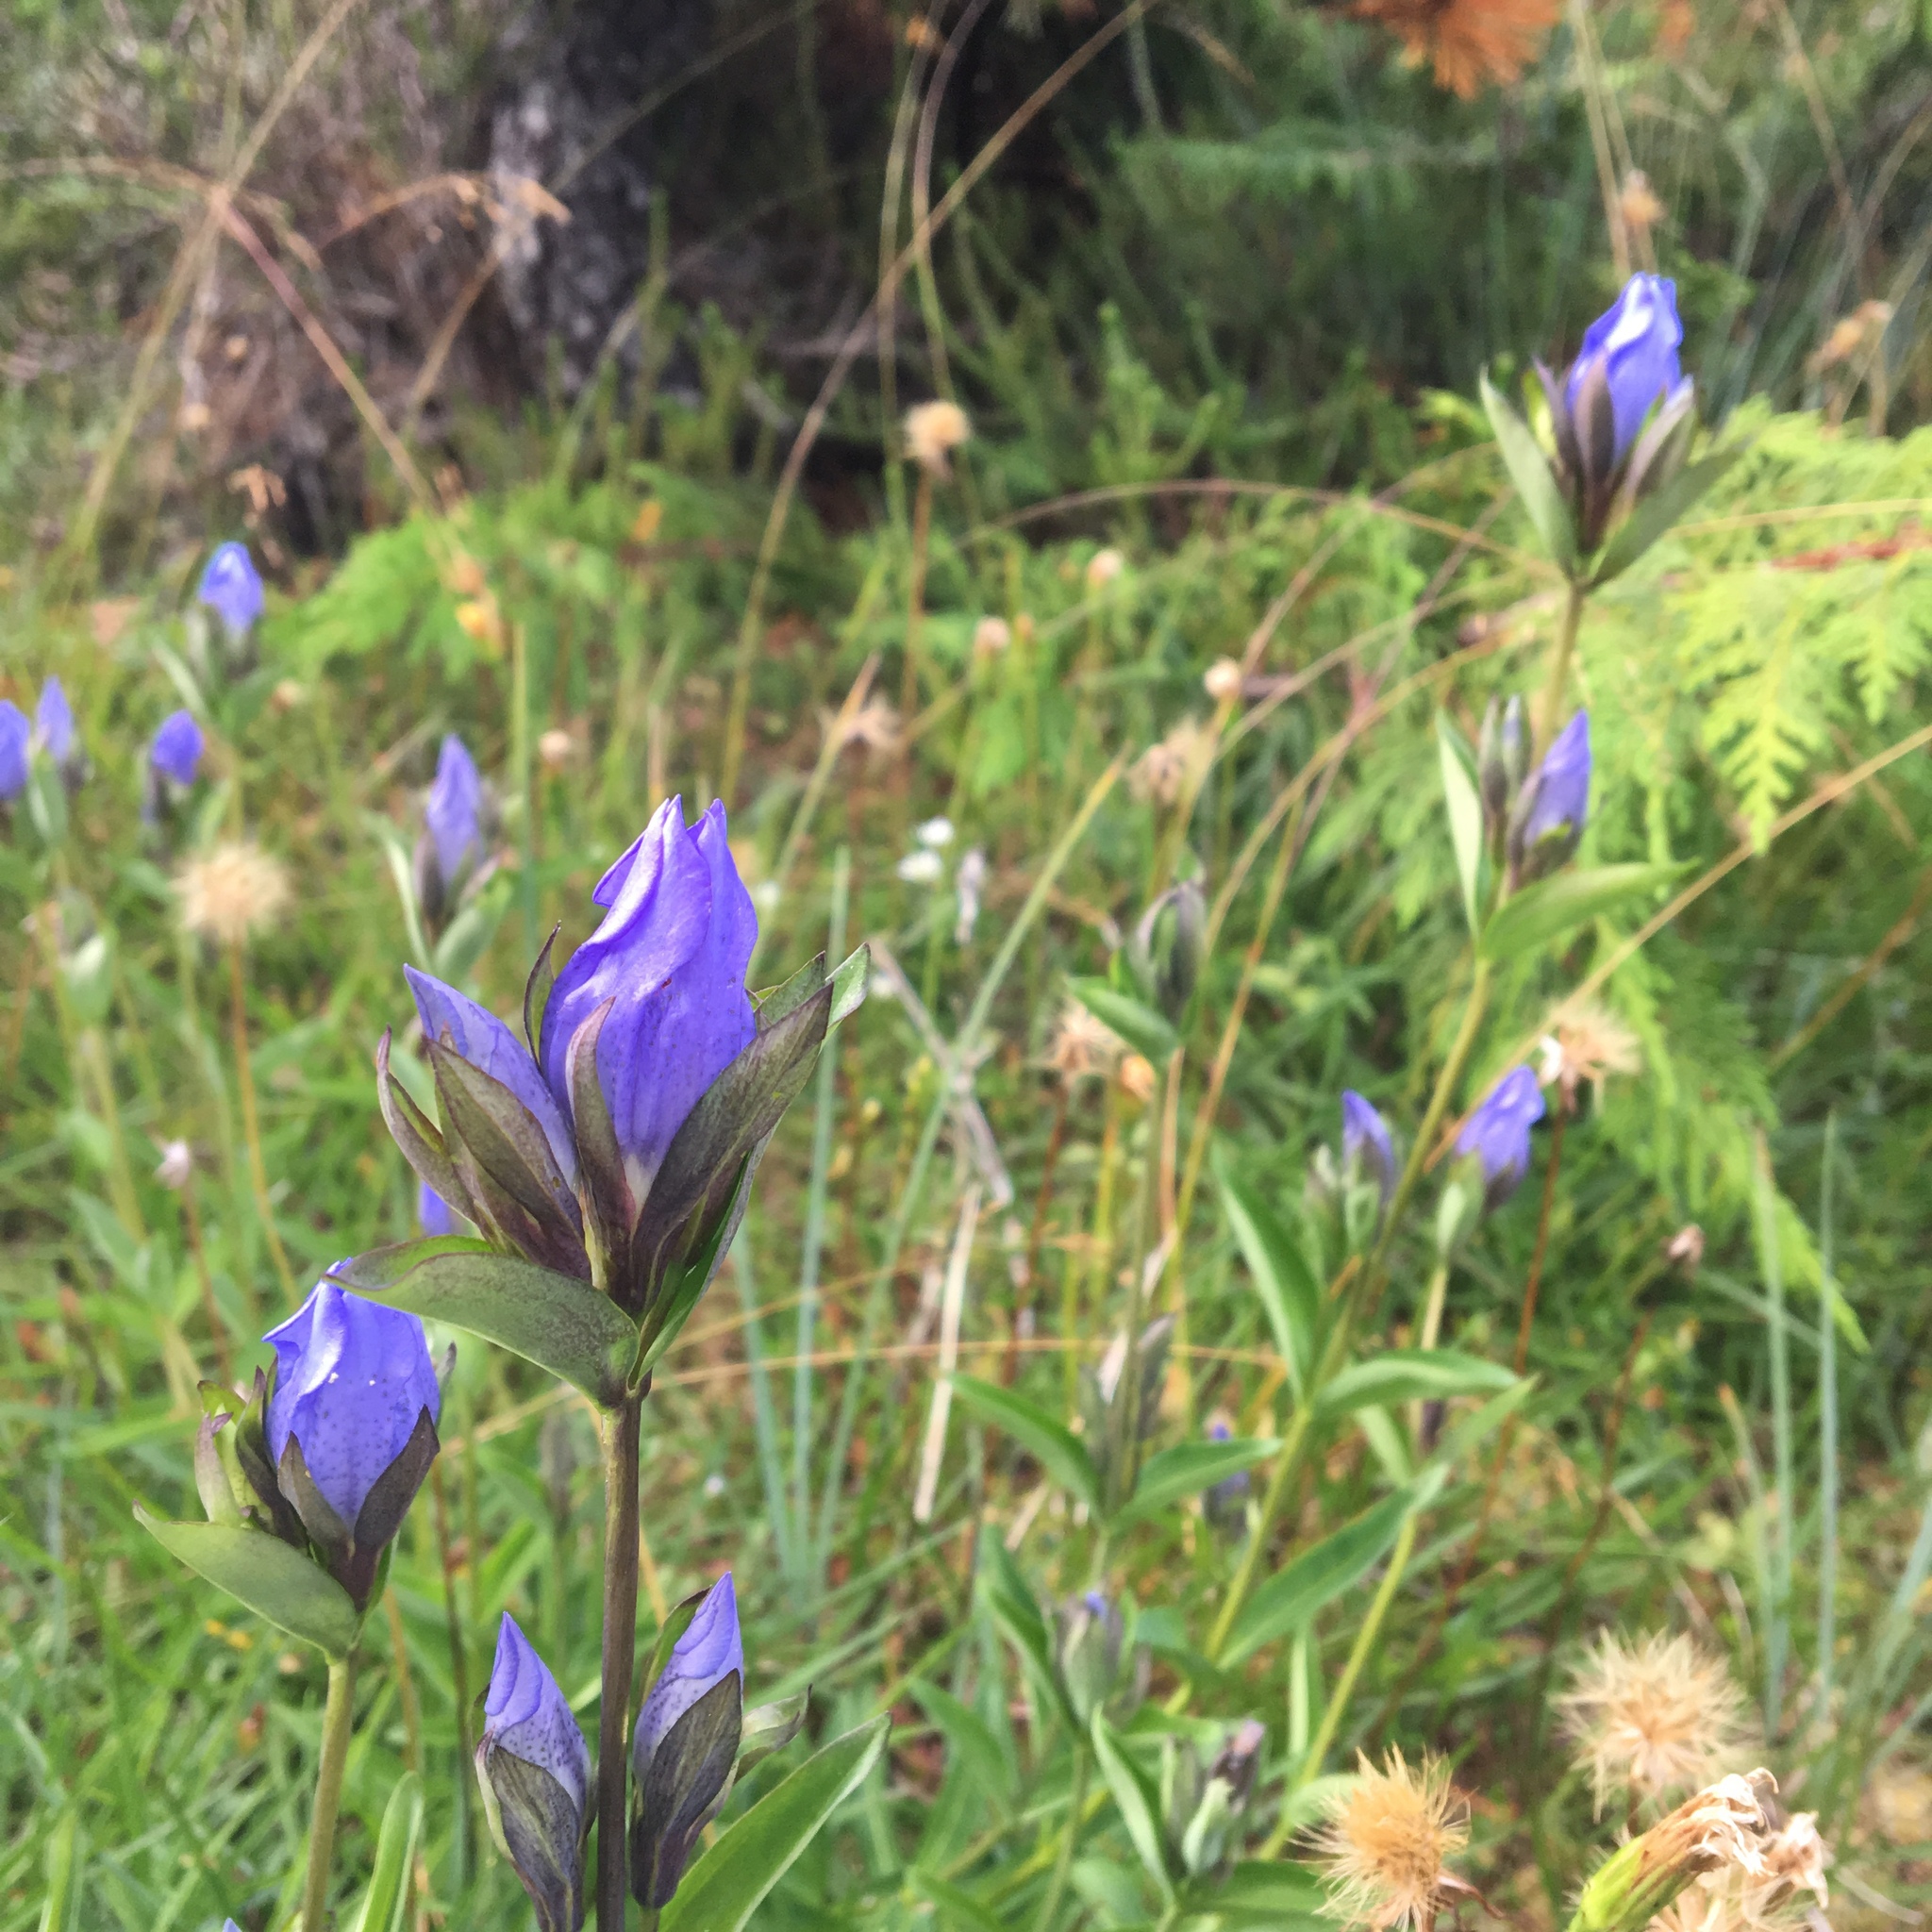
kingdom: Plantae
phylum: Tracheophyta
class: Magnoliopsida
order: Gentianales
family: Gentianaceae
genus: Gentiana
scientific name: Gentiana sceptrum
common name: Pacific gentian
